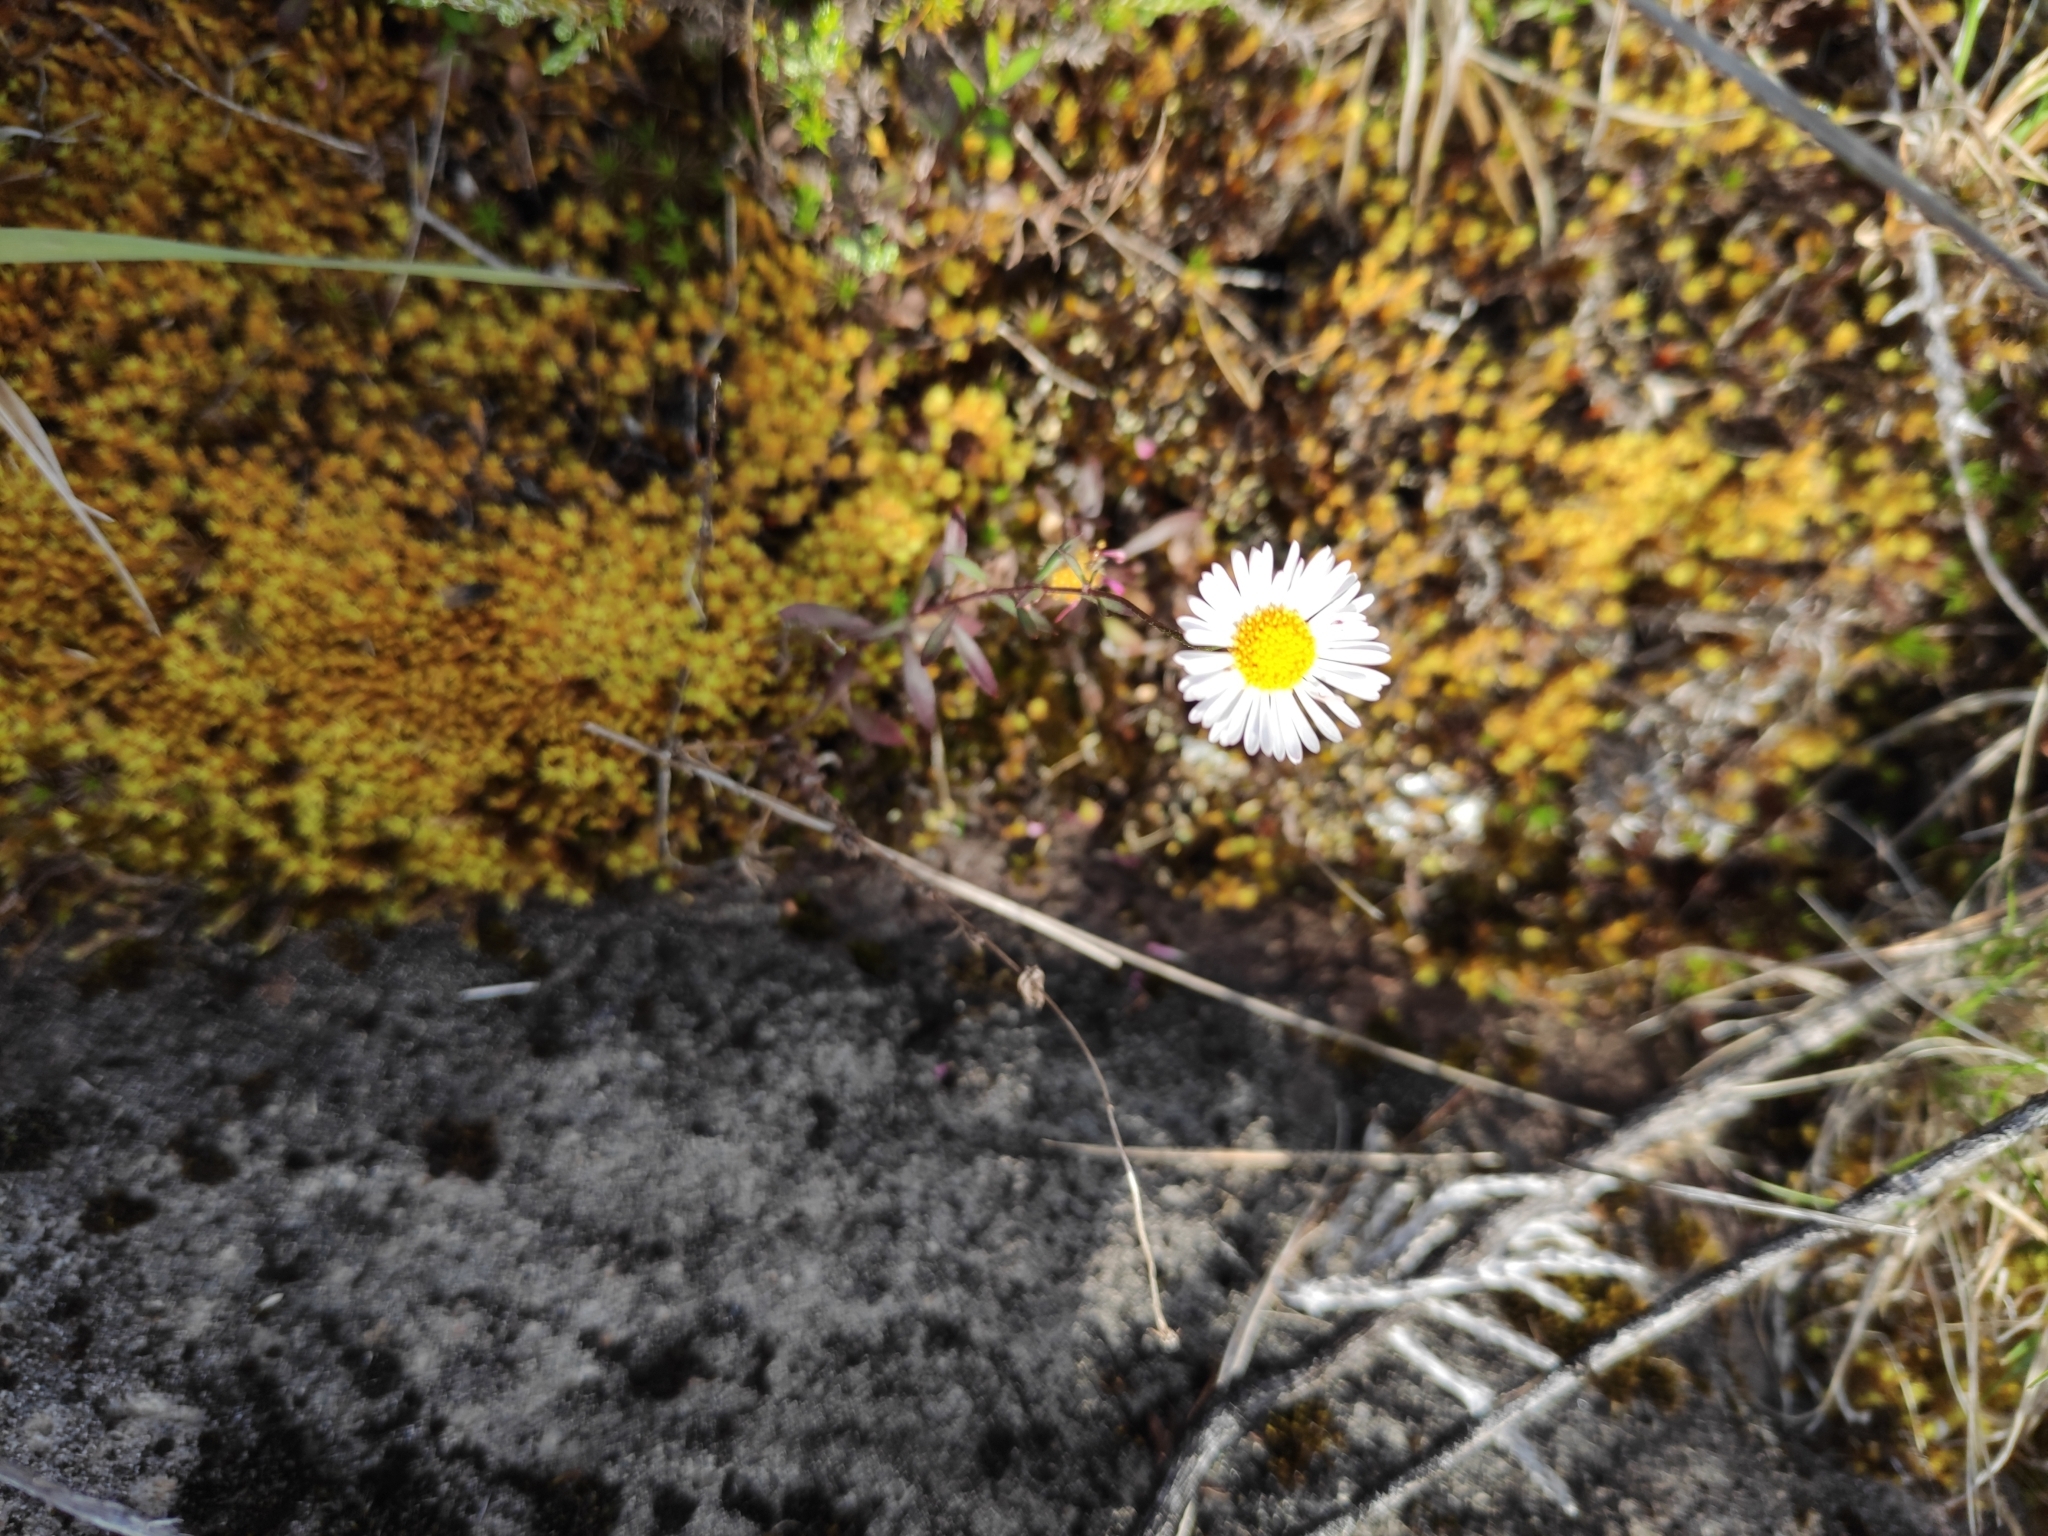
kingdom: Plantae
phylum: Tracheophyta
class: Magnoliopsida
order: Asterales
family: Asteraceae
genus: Erigeron
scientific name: Erigeron karvinskianus
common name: Mexican fleabane
